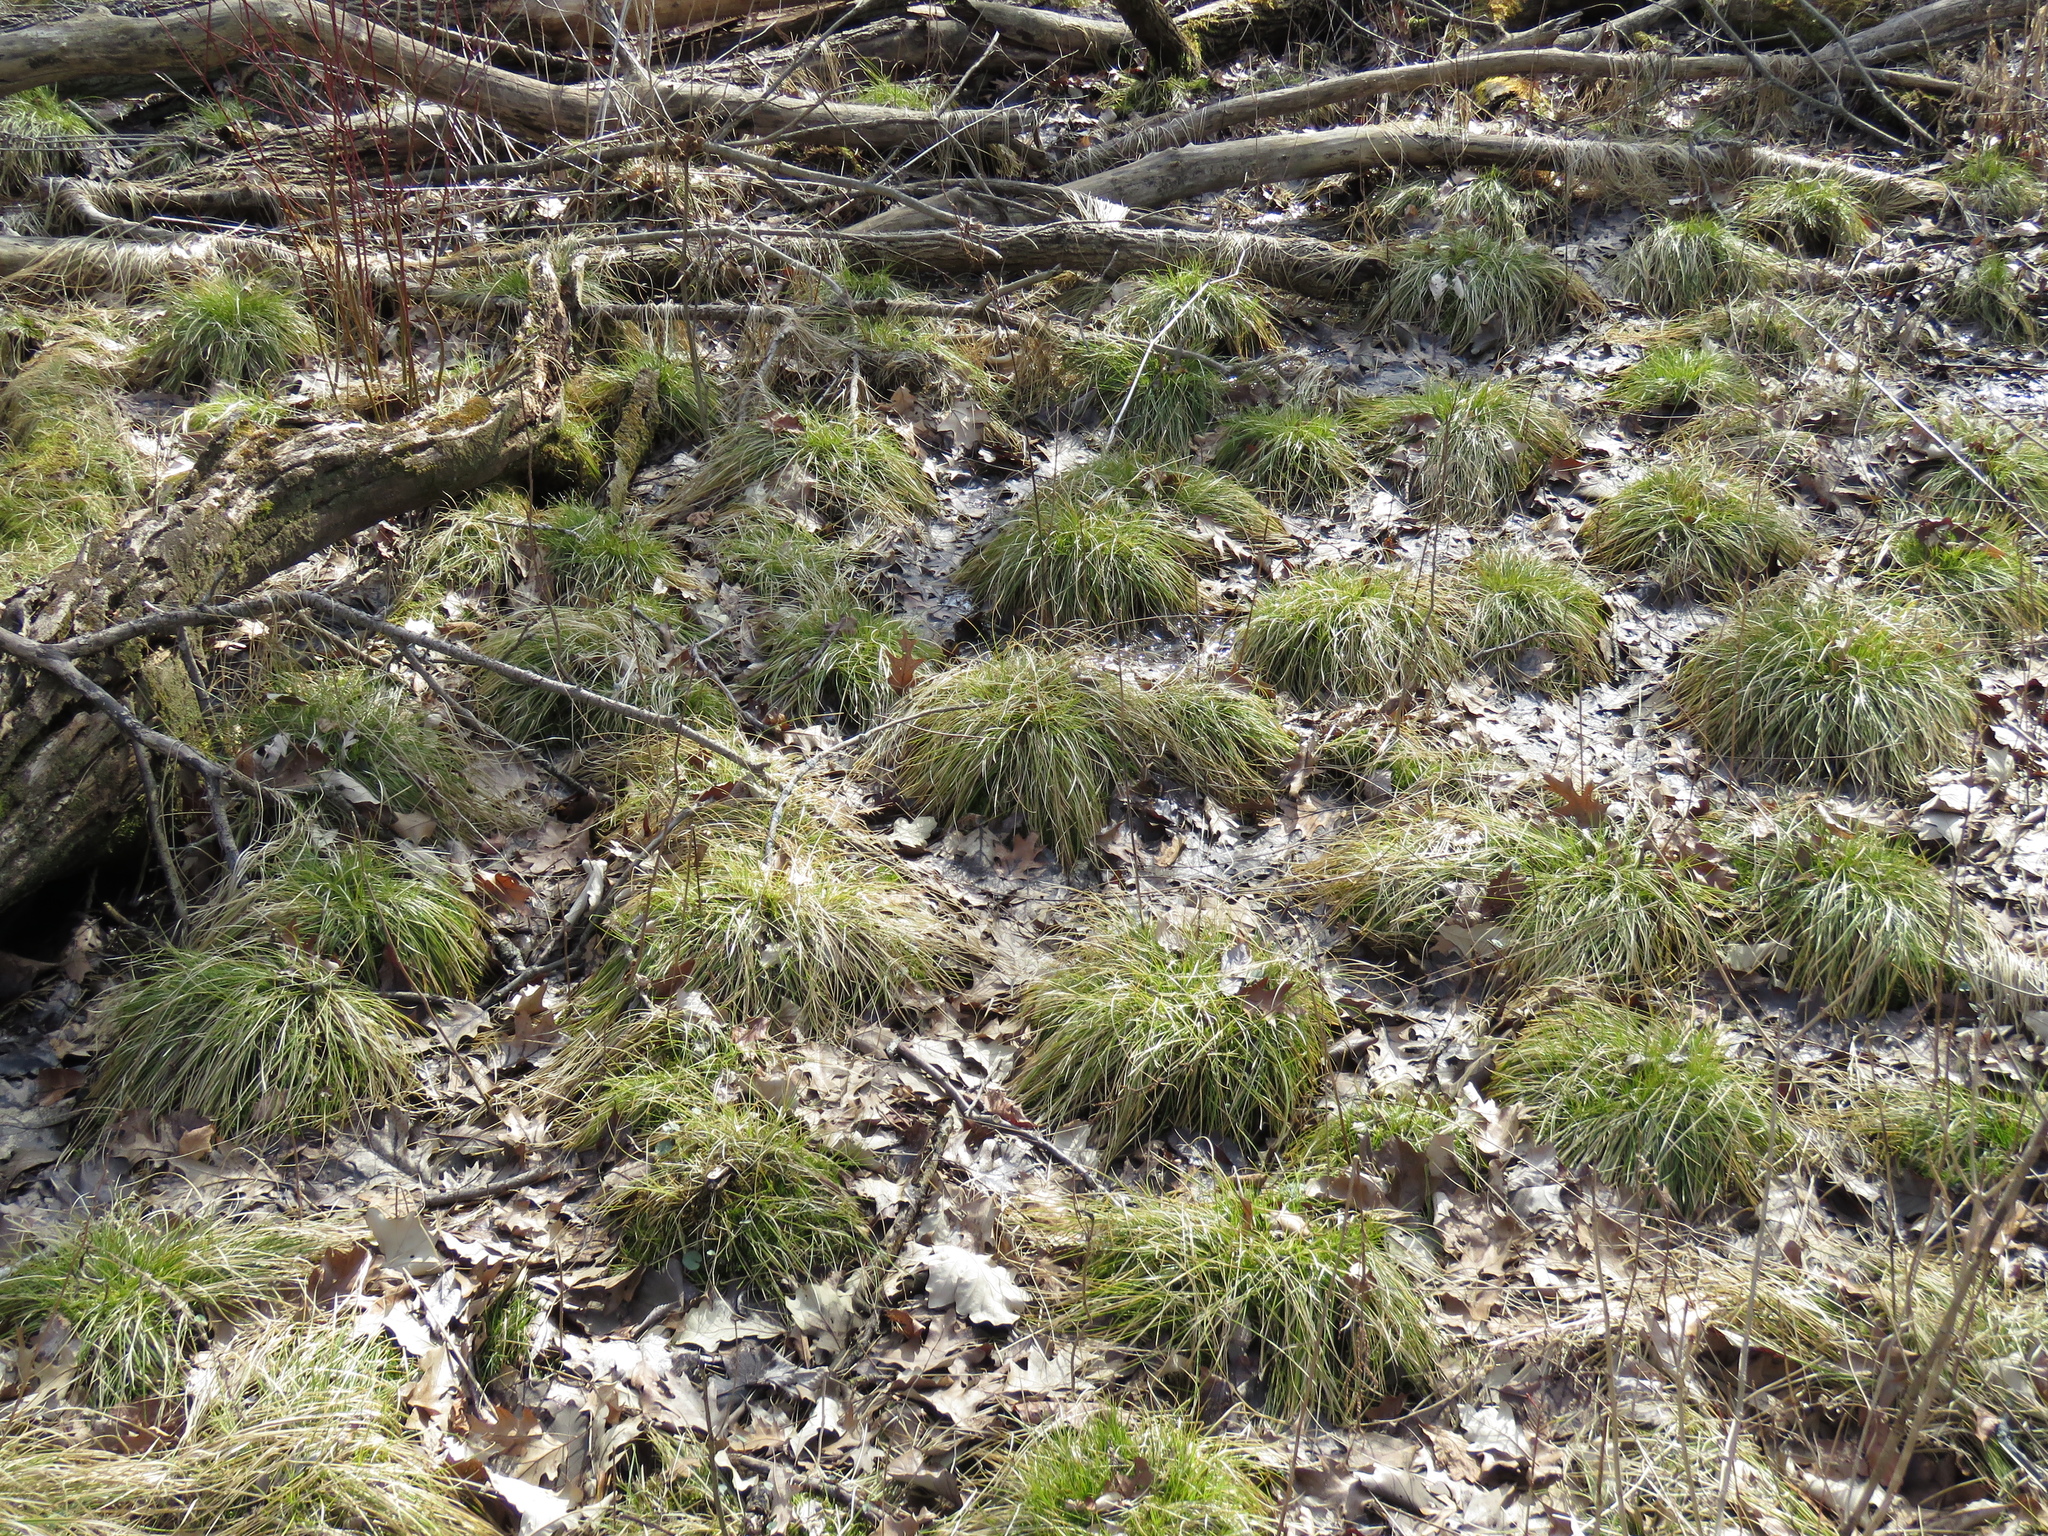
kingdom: Plantae
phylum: Tracheophyta
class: Liliopsida
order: Poales
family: Cyperaceae
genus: Carex
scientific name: Carex bromoides
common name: Brome hummock sedge
